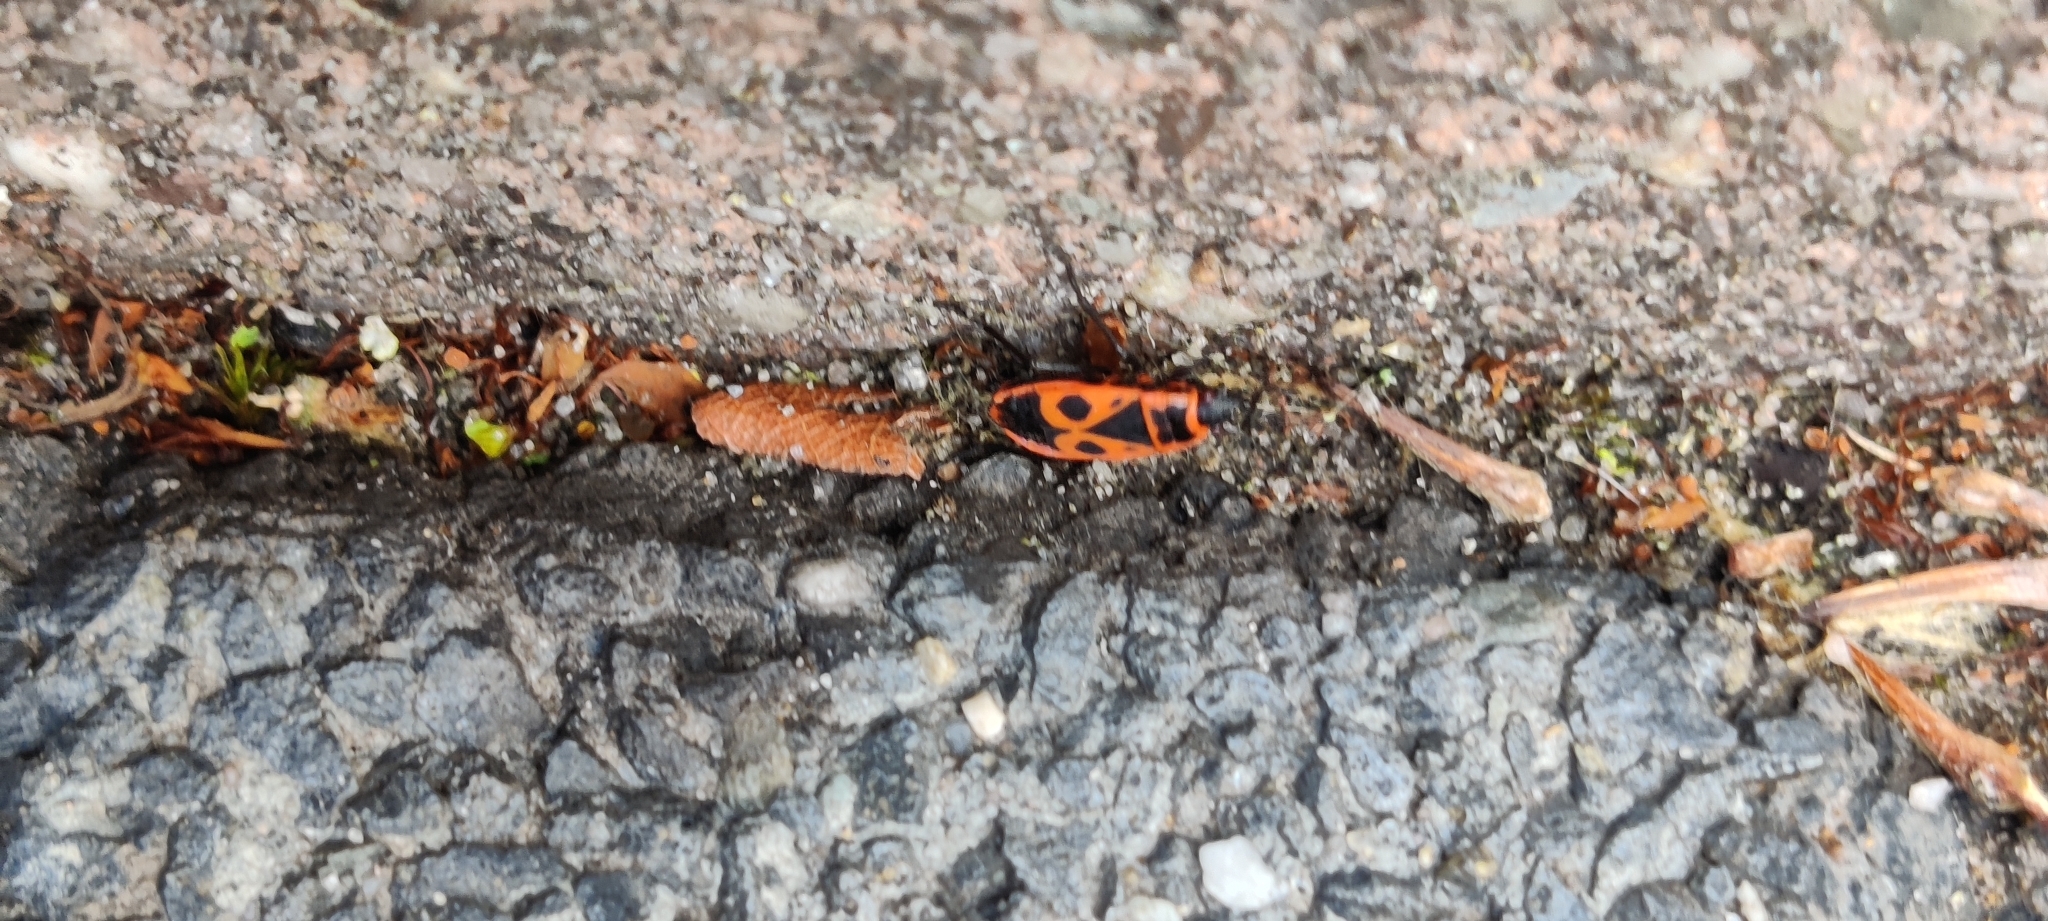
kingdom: Animalia
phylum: Arthropoda
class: Insecta
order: Hemiptera
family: Pyrrhocoridae
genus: Pyrrhocoris
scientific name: Pyrrhocoris apterus
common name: Firebug
